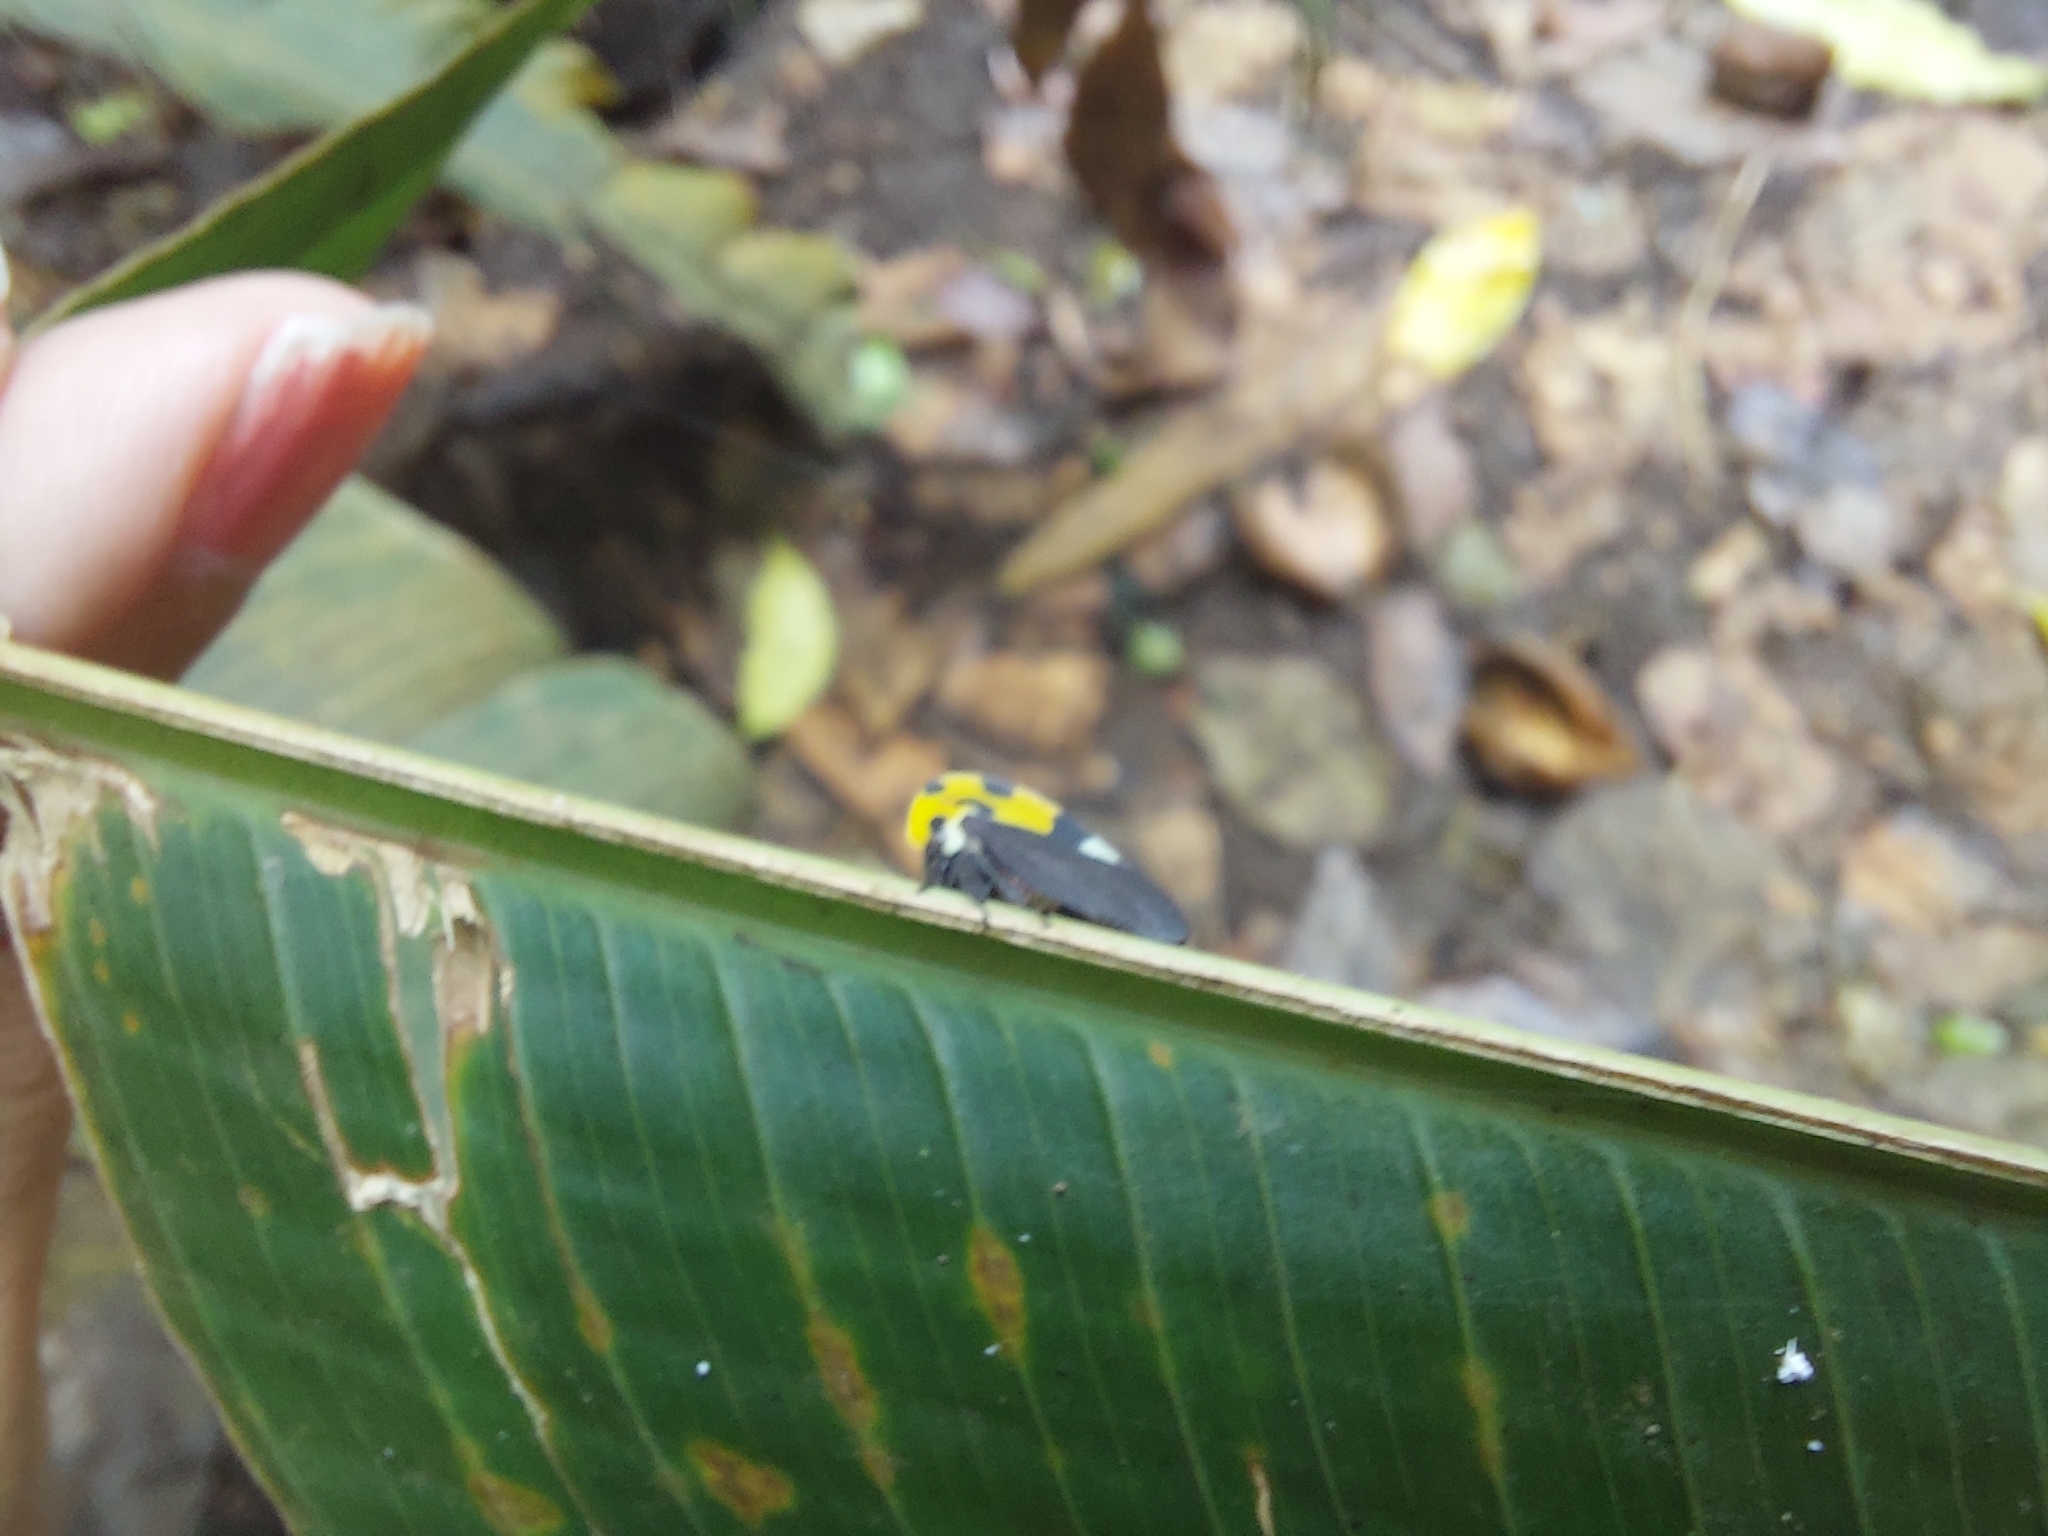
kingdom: Animalia
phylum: Arthropoda
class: Insecta
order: Hemiptera
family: Membracidae
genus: Membracis
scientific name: Membracis mexicana
